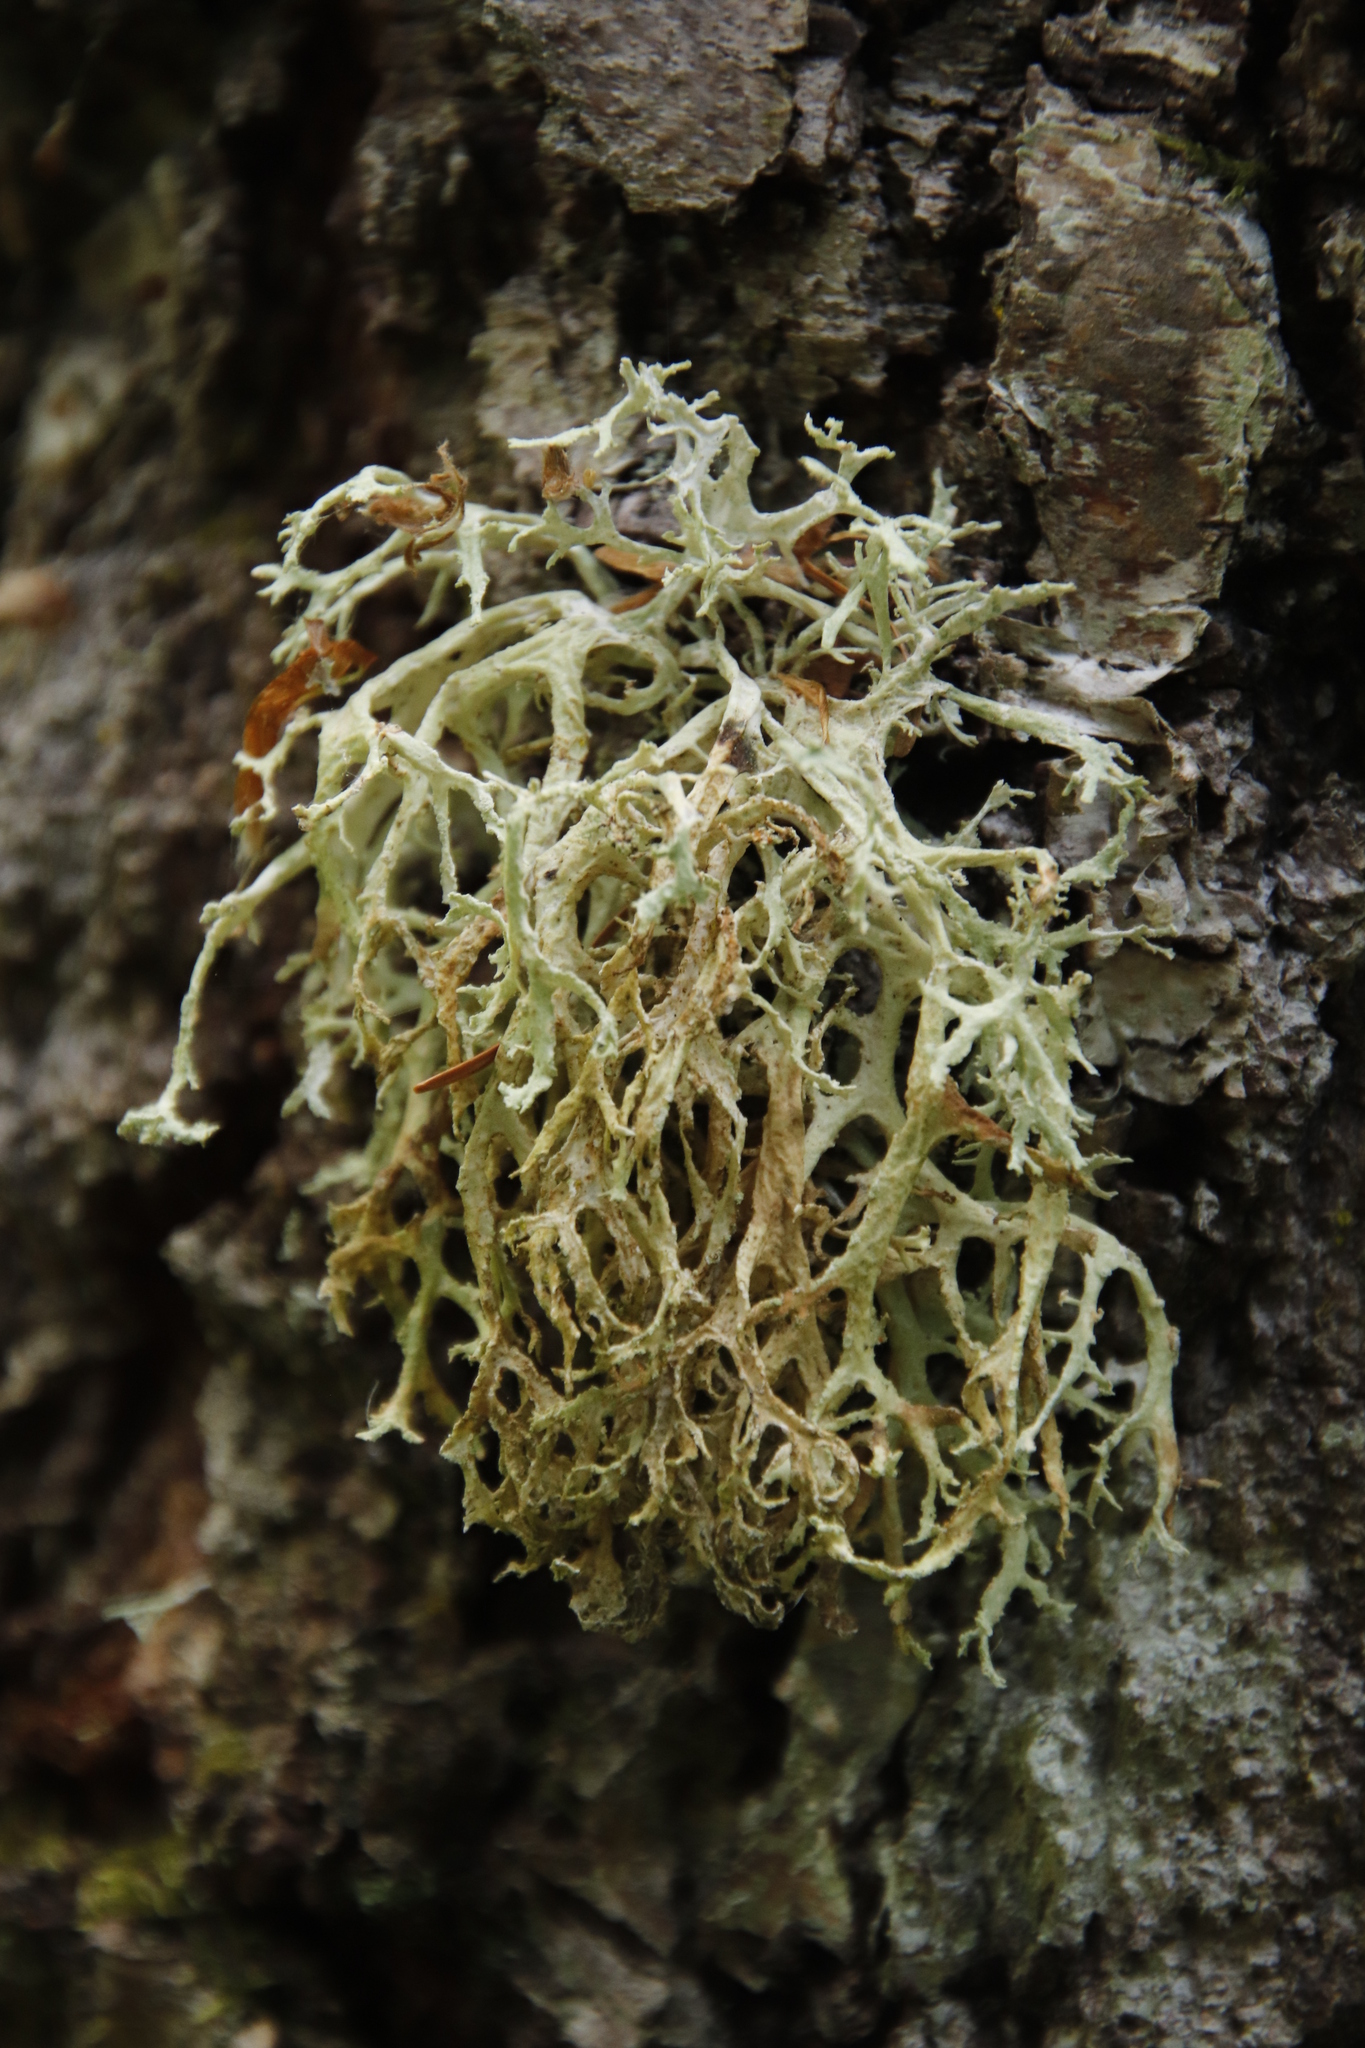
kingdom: Fungi
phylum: Ascomycota
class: Lecanoromycetes
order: Lecanorales
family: Parmeliaceae
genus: Evernia
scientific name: Evernia prunastri
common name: Oak moss
